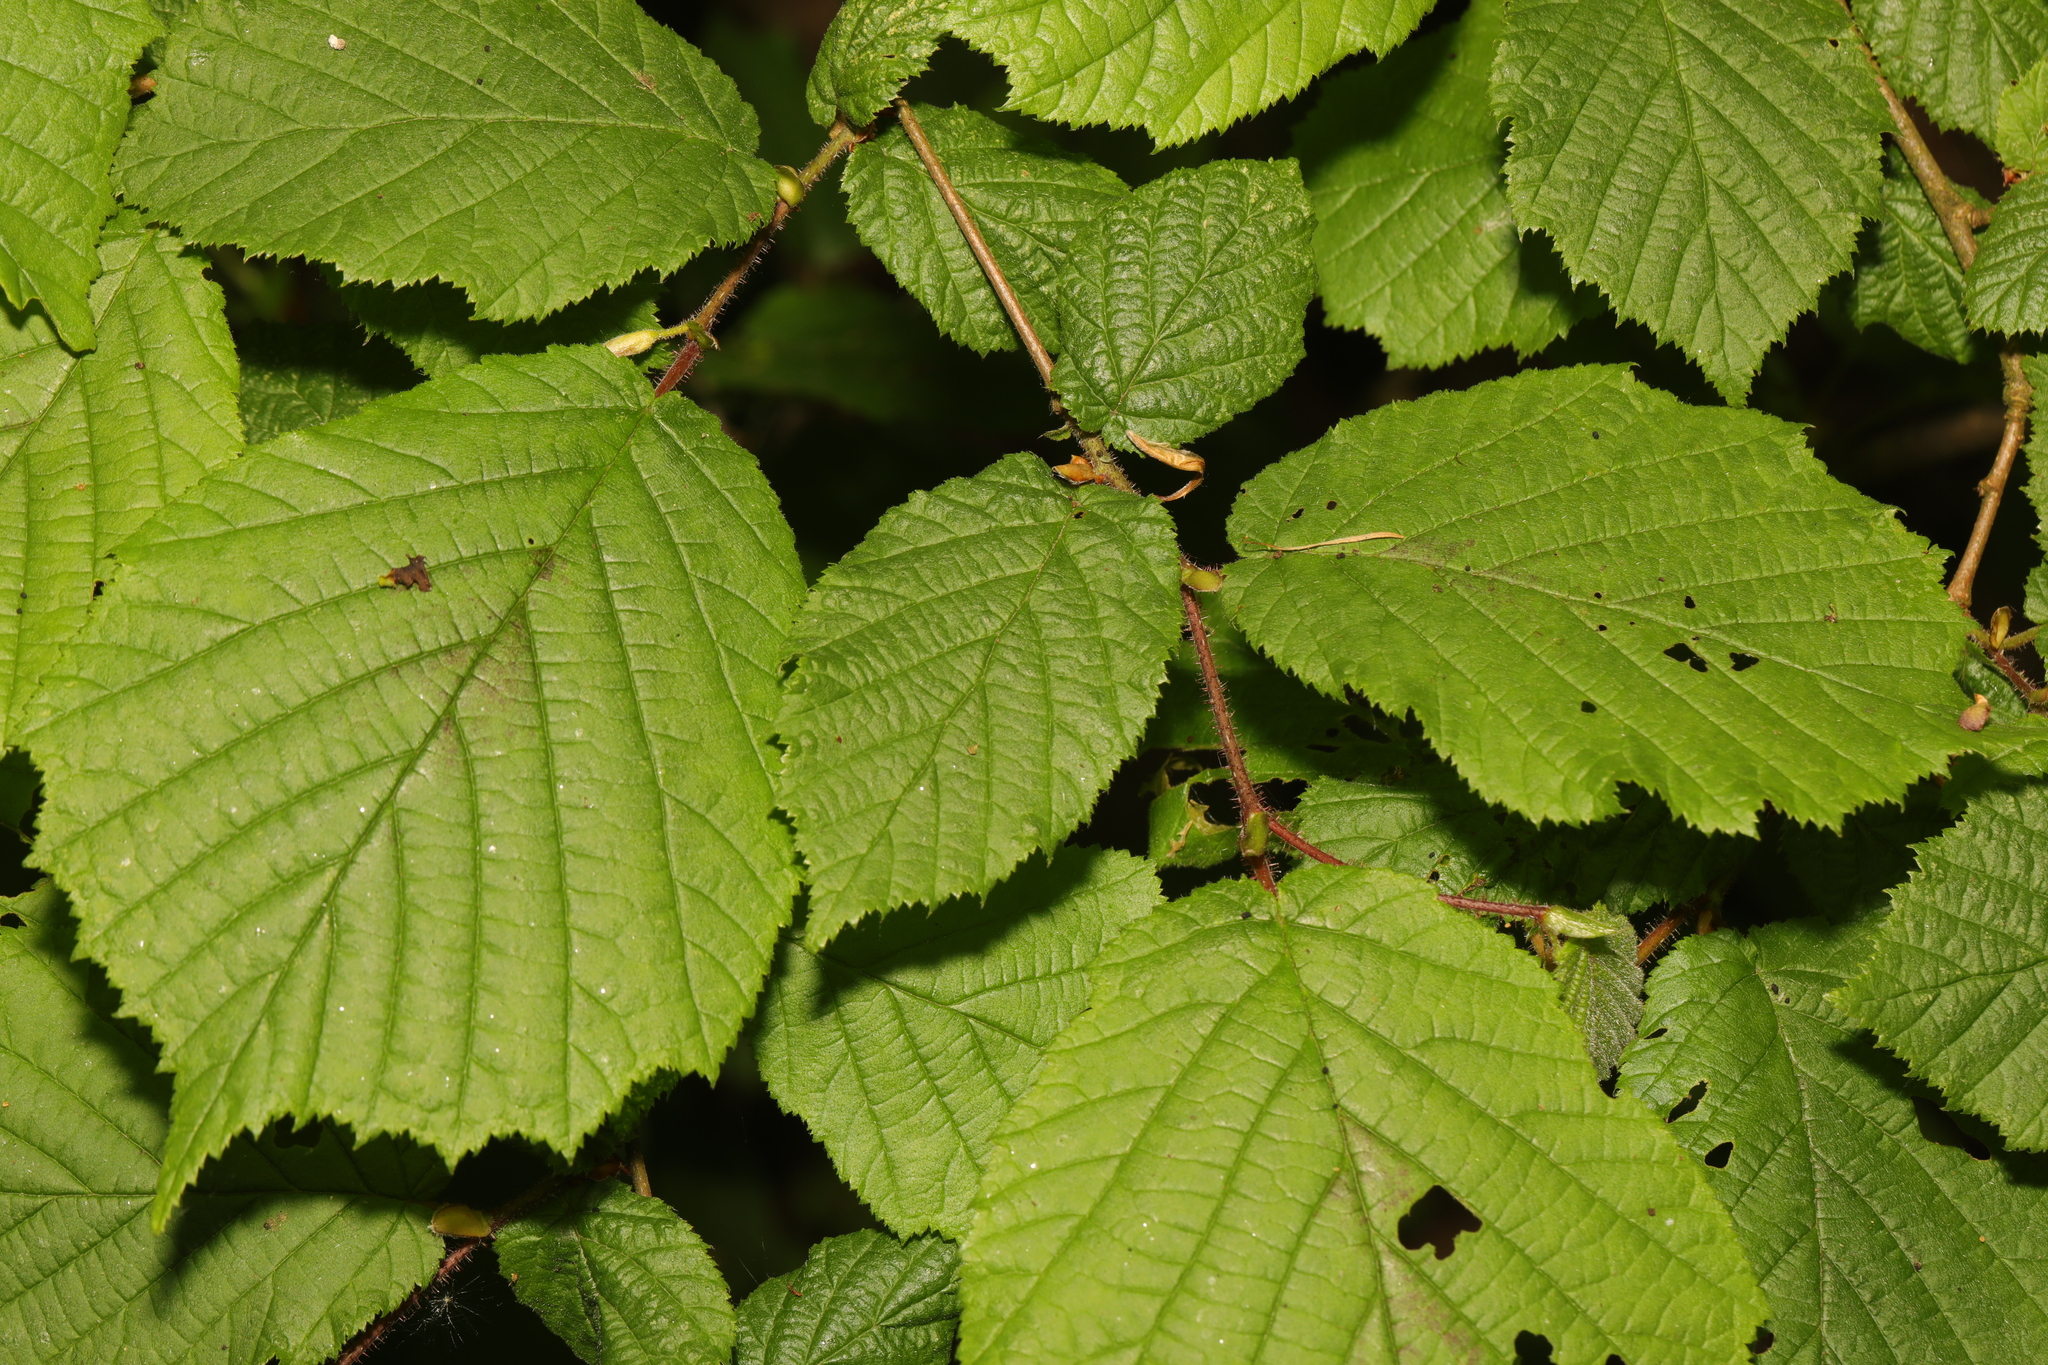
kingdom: Plantae
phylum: Tracheophyta
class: Magnoliopsida
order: Fagales
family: Betulaceae
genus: Corylus
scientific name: Corylus avellana
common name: European hazel
